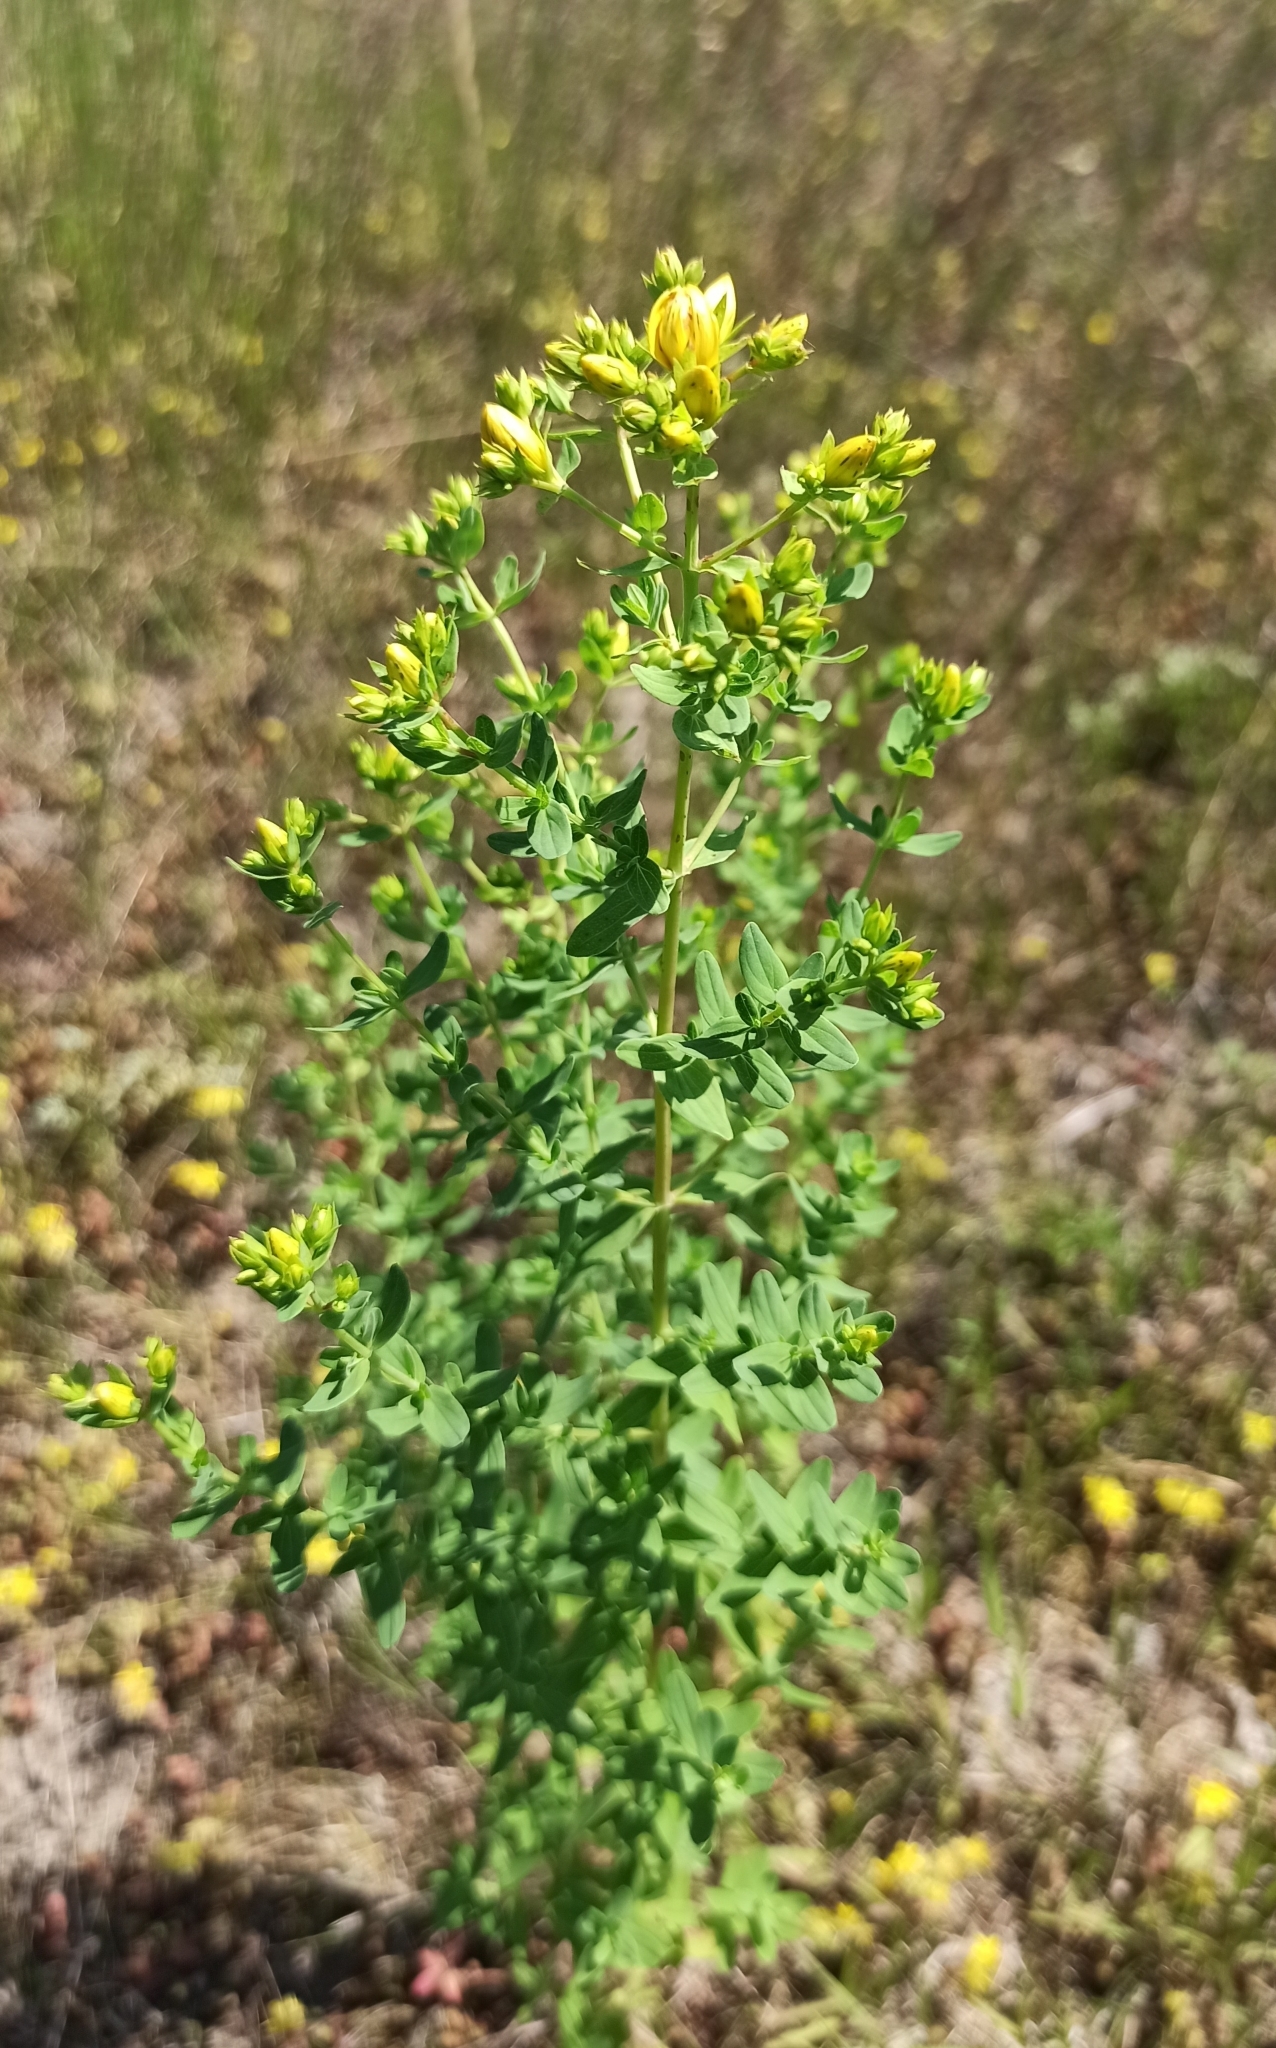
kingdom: Plantae
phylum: Tracheophyta
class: Magnoliopsida
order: Malpighiales
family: Hypericaceae
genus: Hypericum
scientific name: Hypericum perforatum
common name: Common st. johnswort
